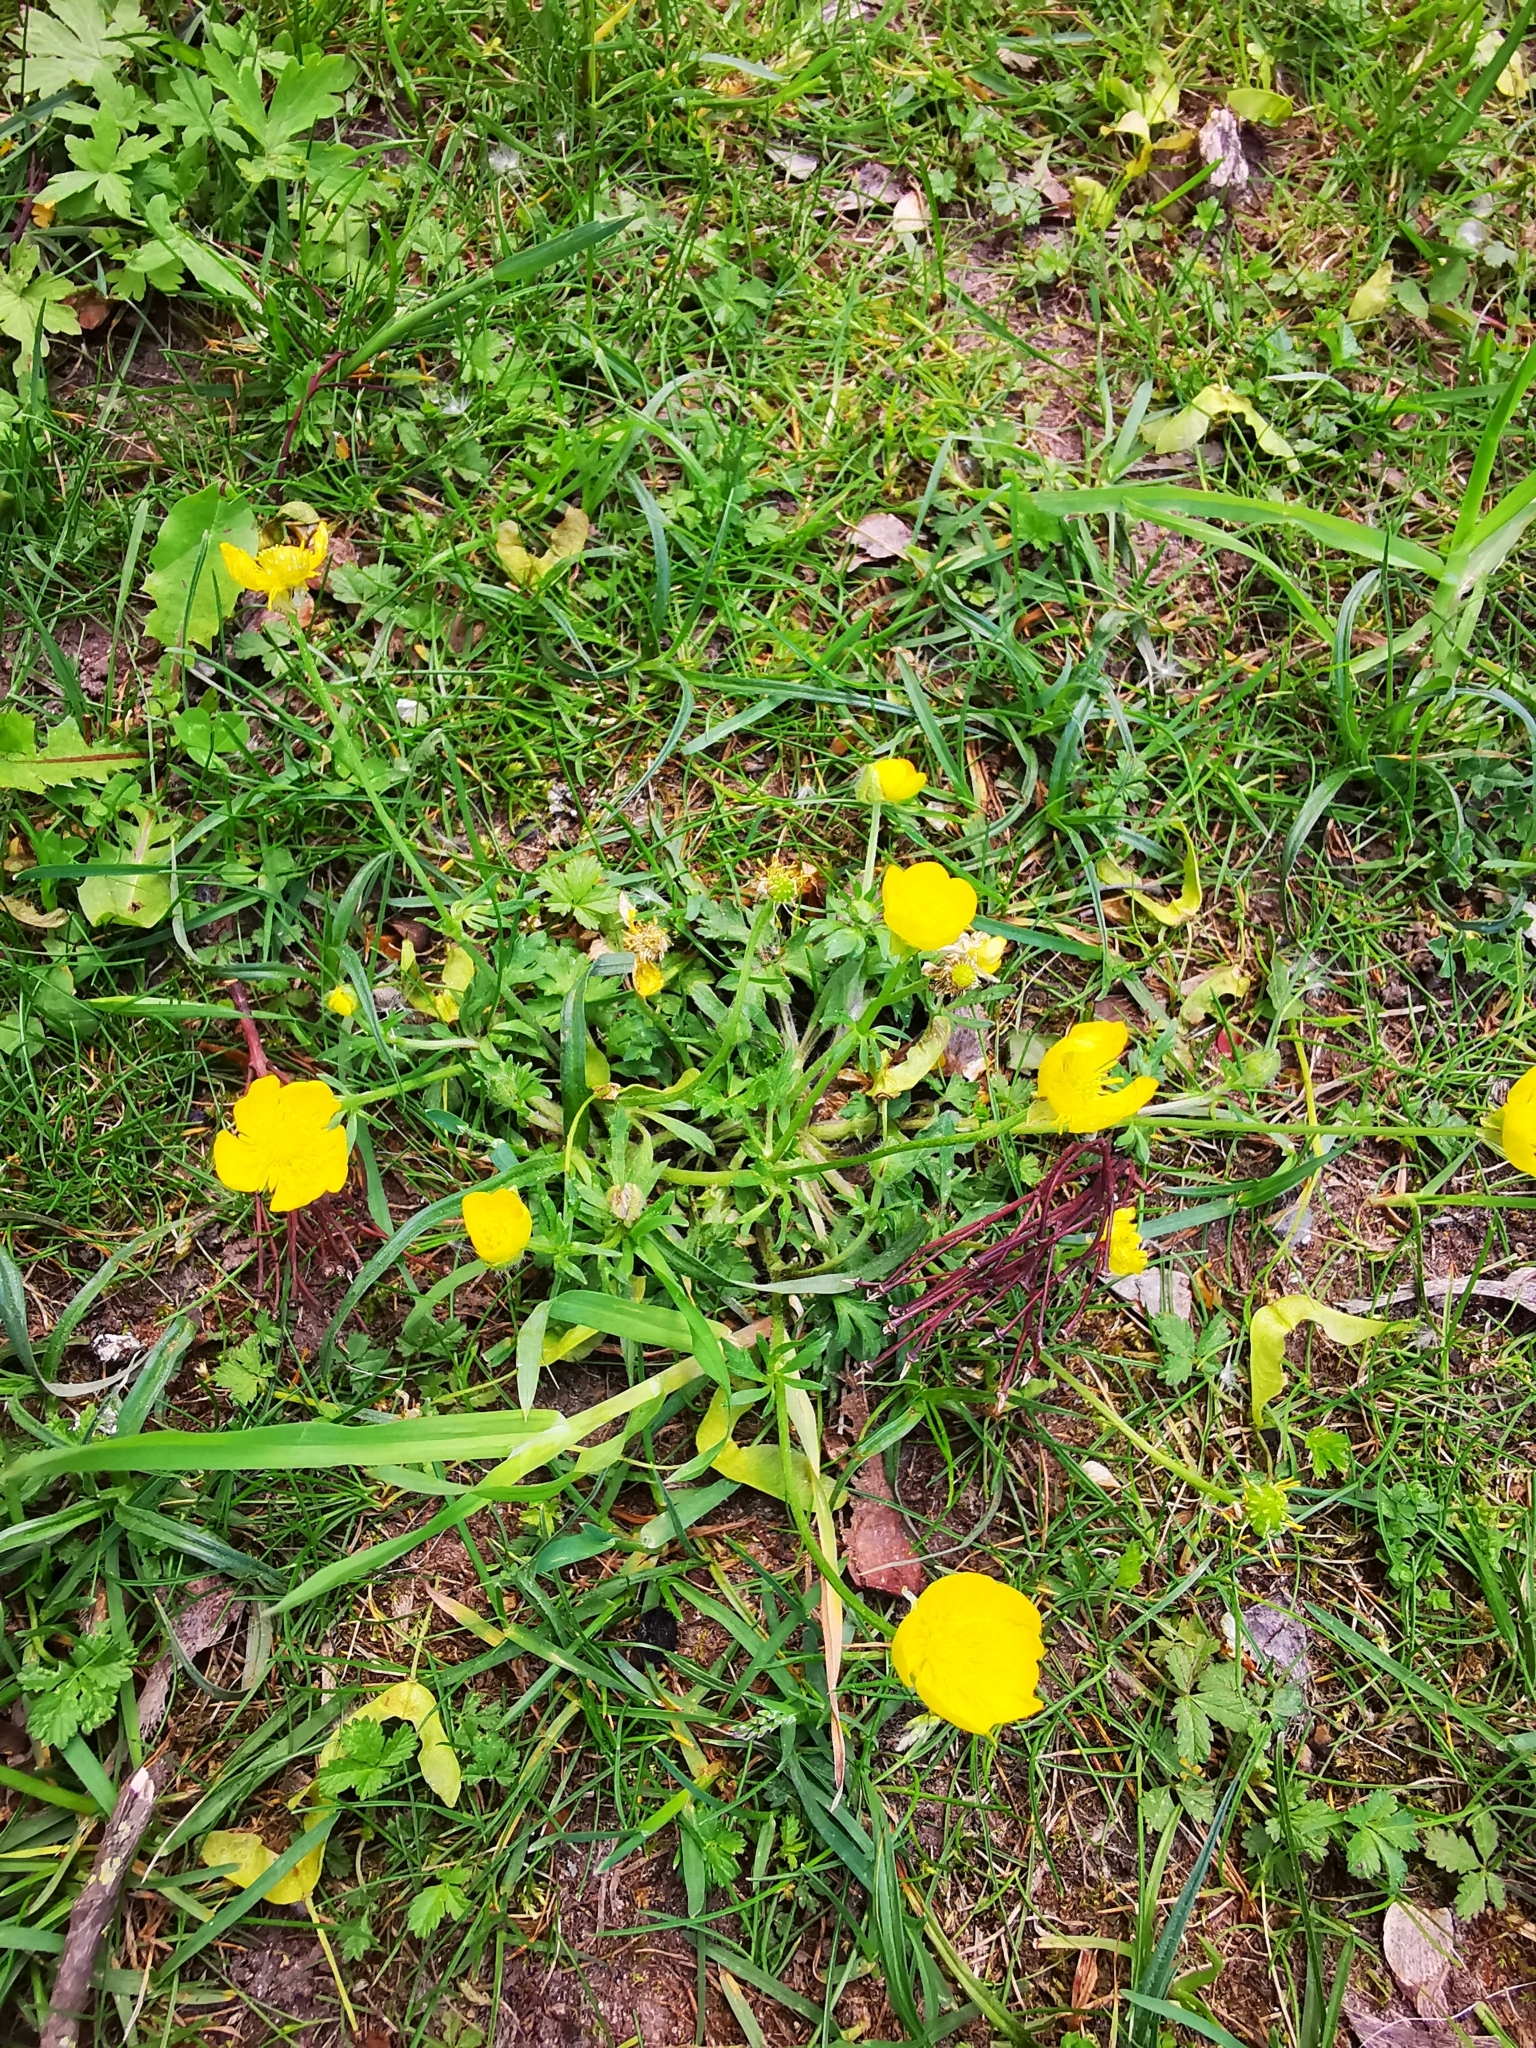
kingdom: Plantae
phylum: Tracheophyta
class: Magnoliopsida
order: Ranunculales
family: Ranunculaceae
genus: Ranunculus
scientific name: Ranunculus bulbosus
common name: Bulbous buttercup
